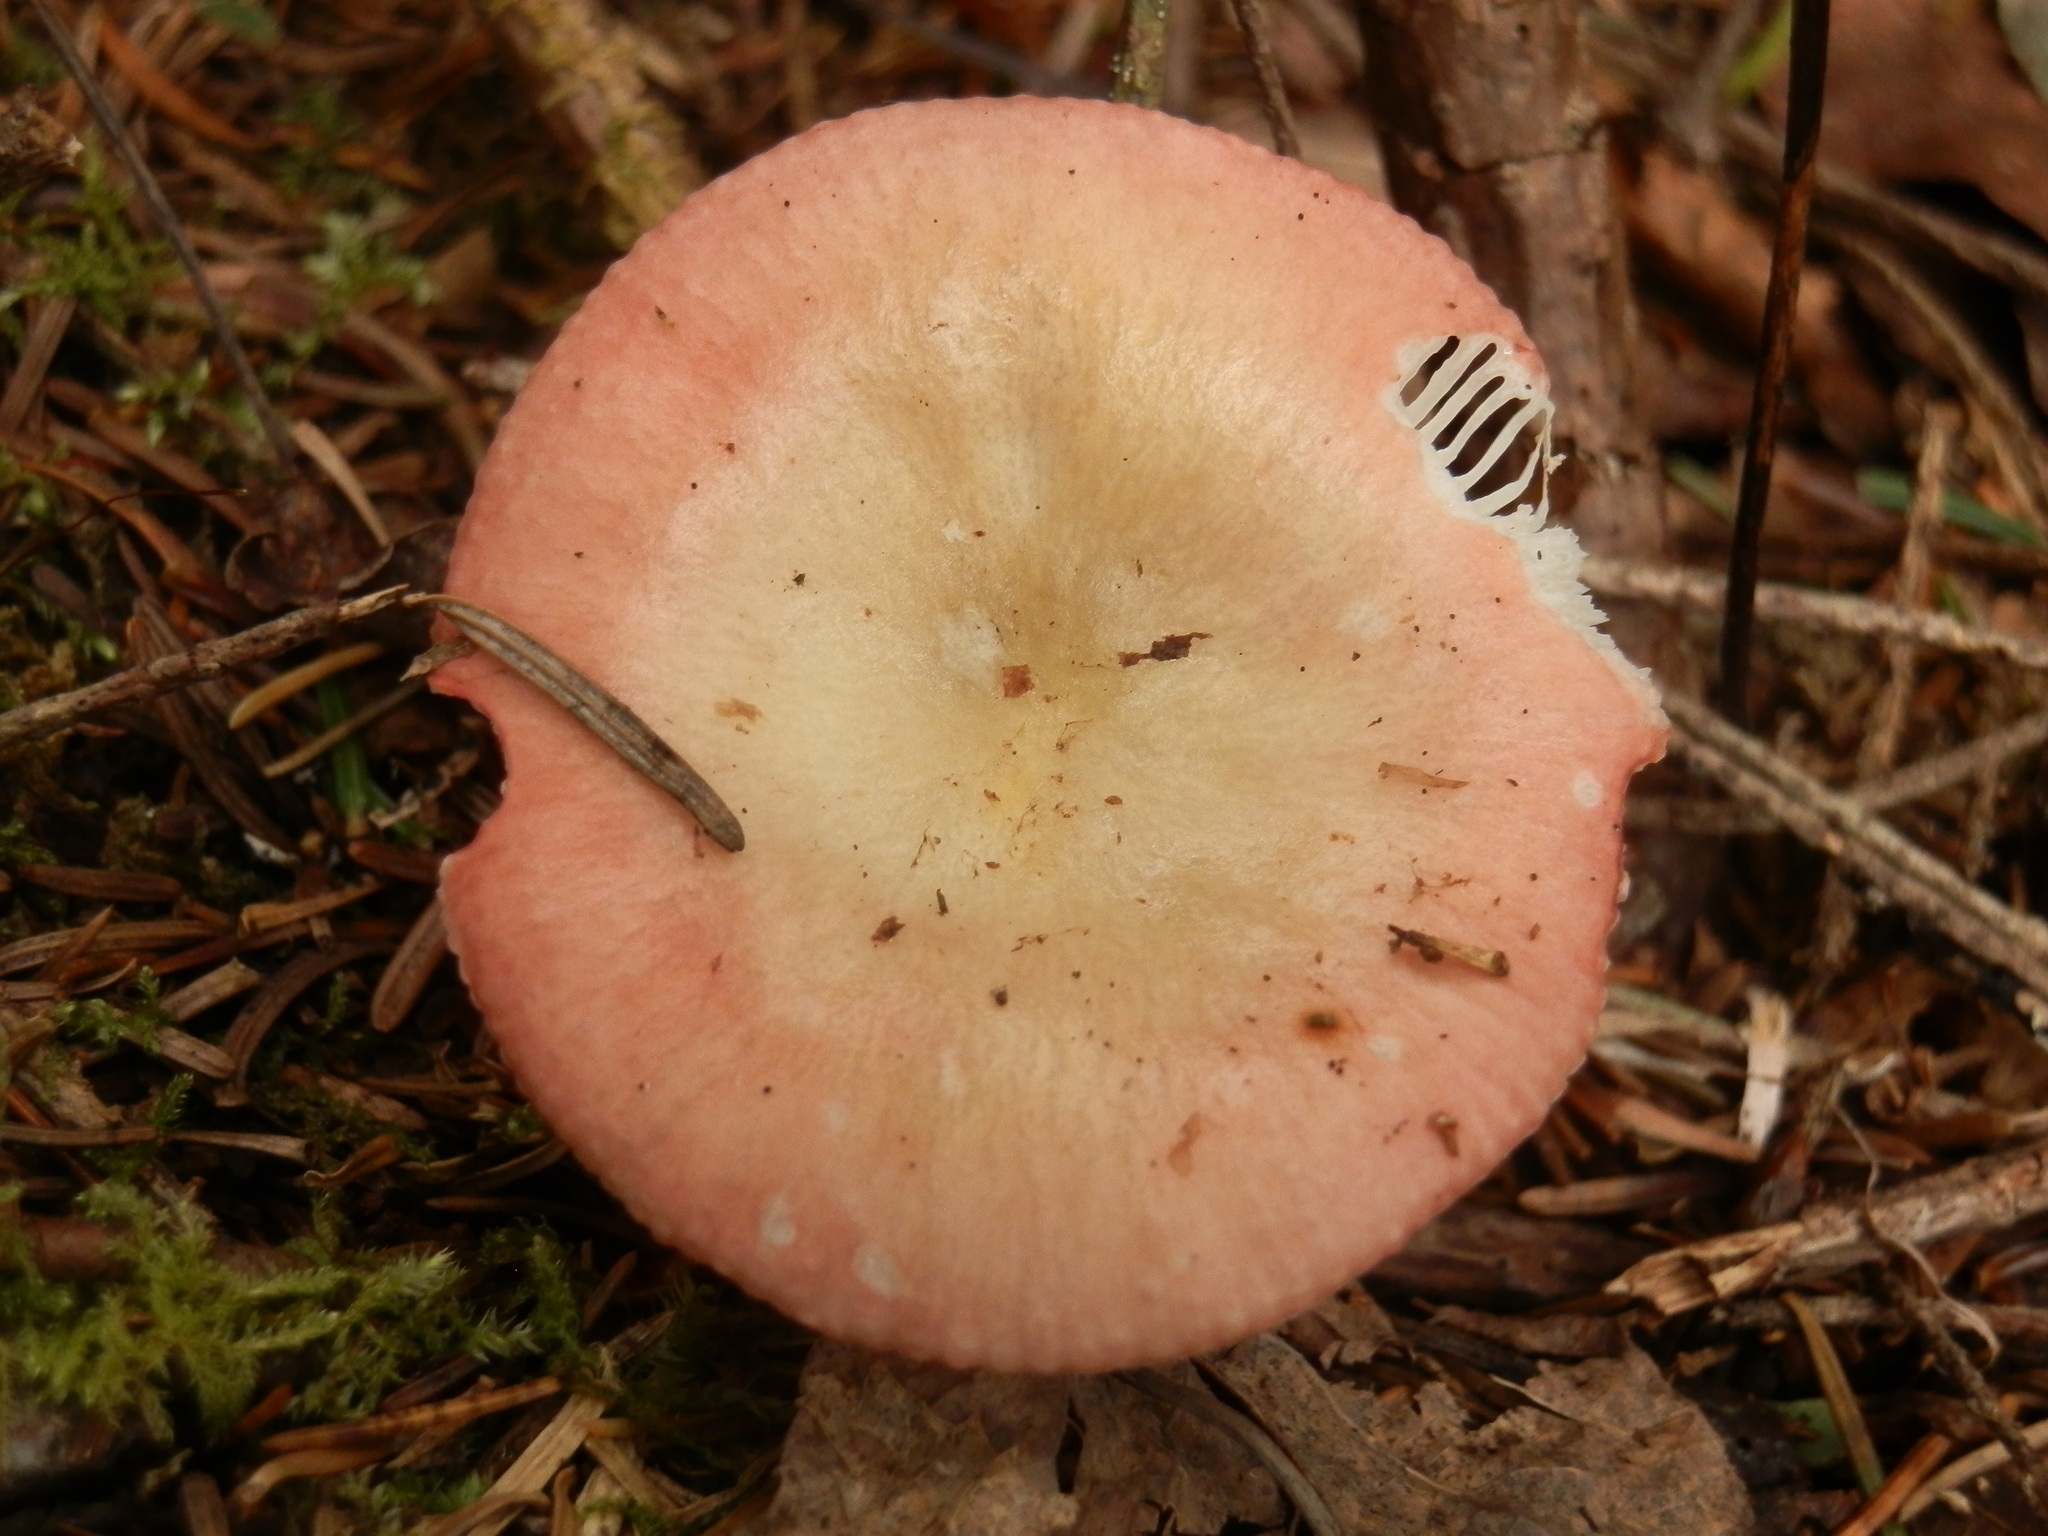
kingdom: Fungi
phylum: Basidiomycota
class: Agaricomycetes
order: Russulales
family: Russulaceae
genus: Russula
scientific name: Russula bicolor
